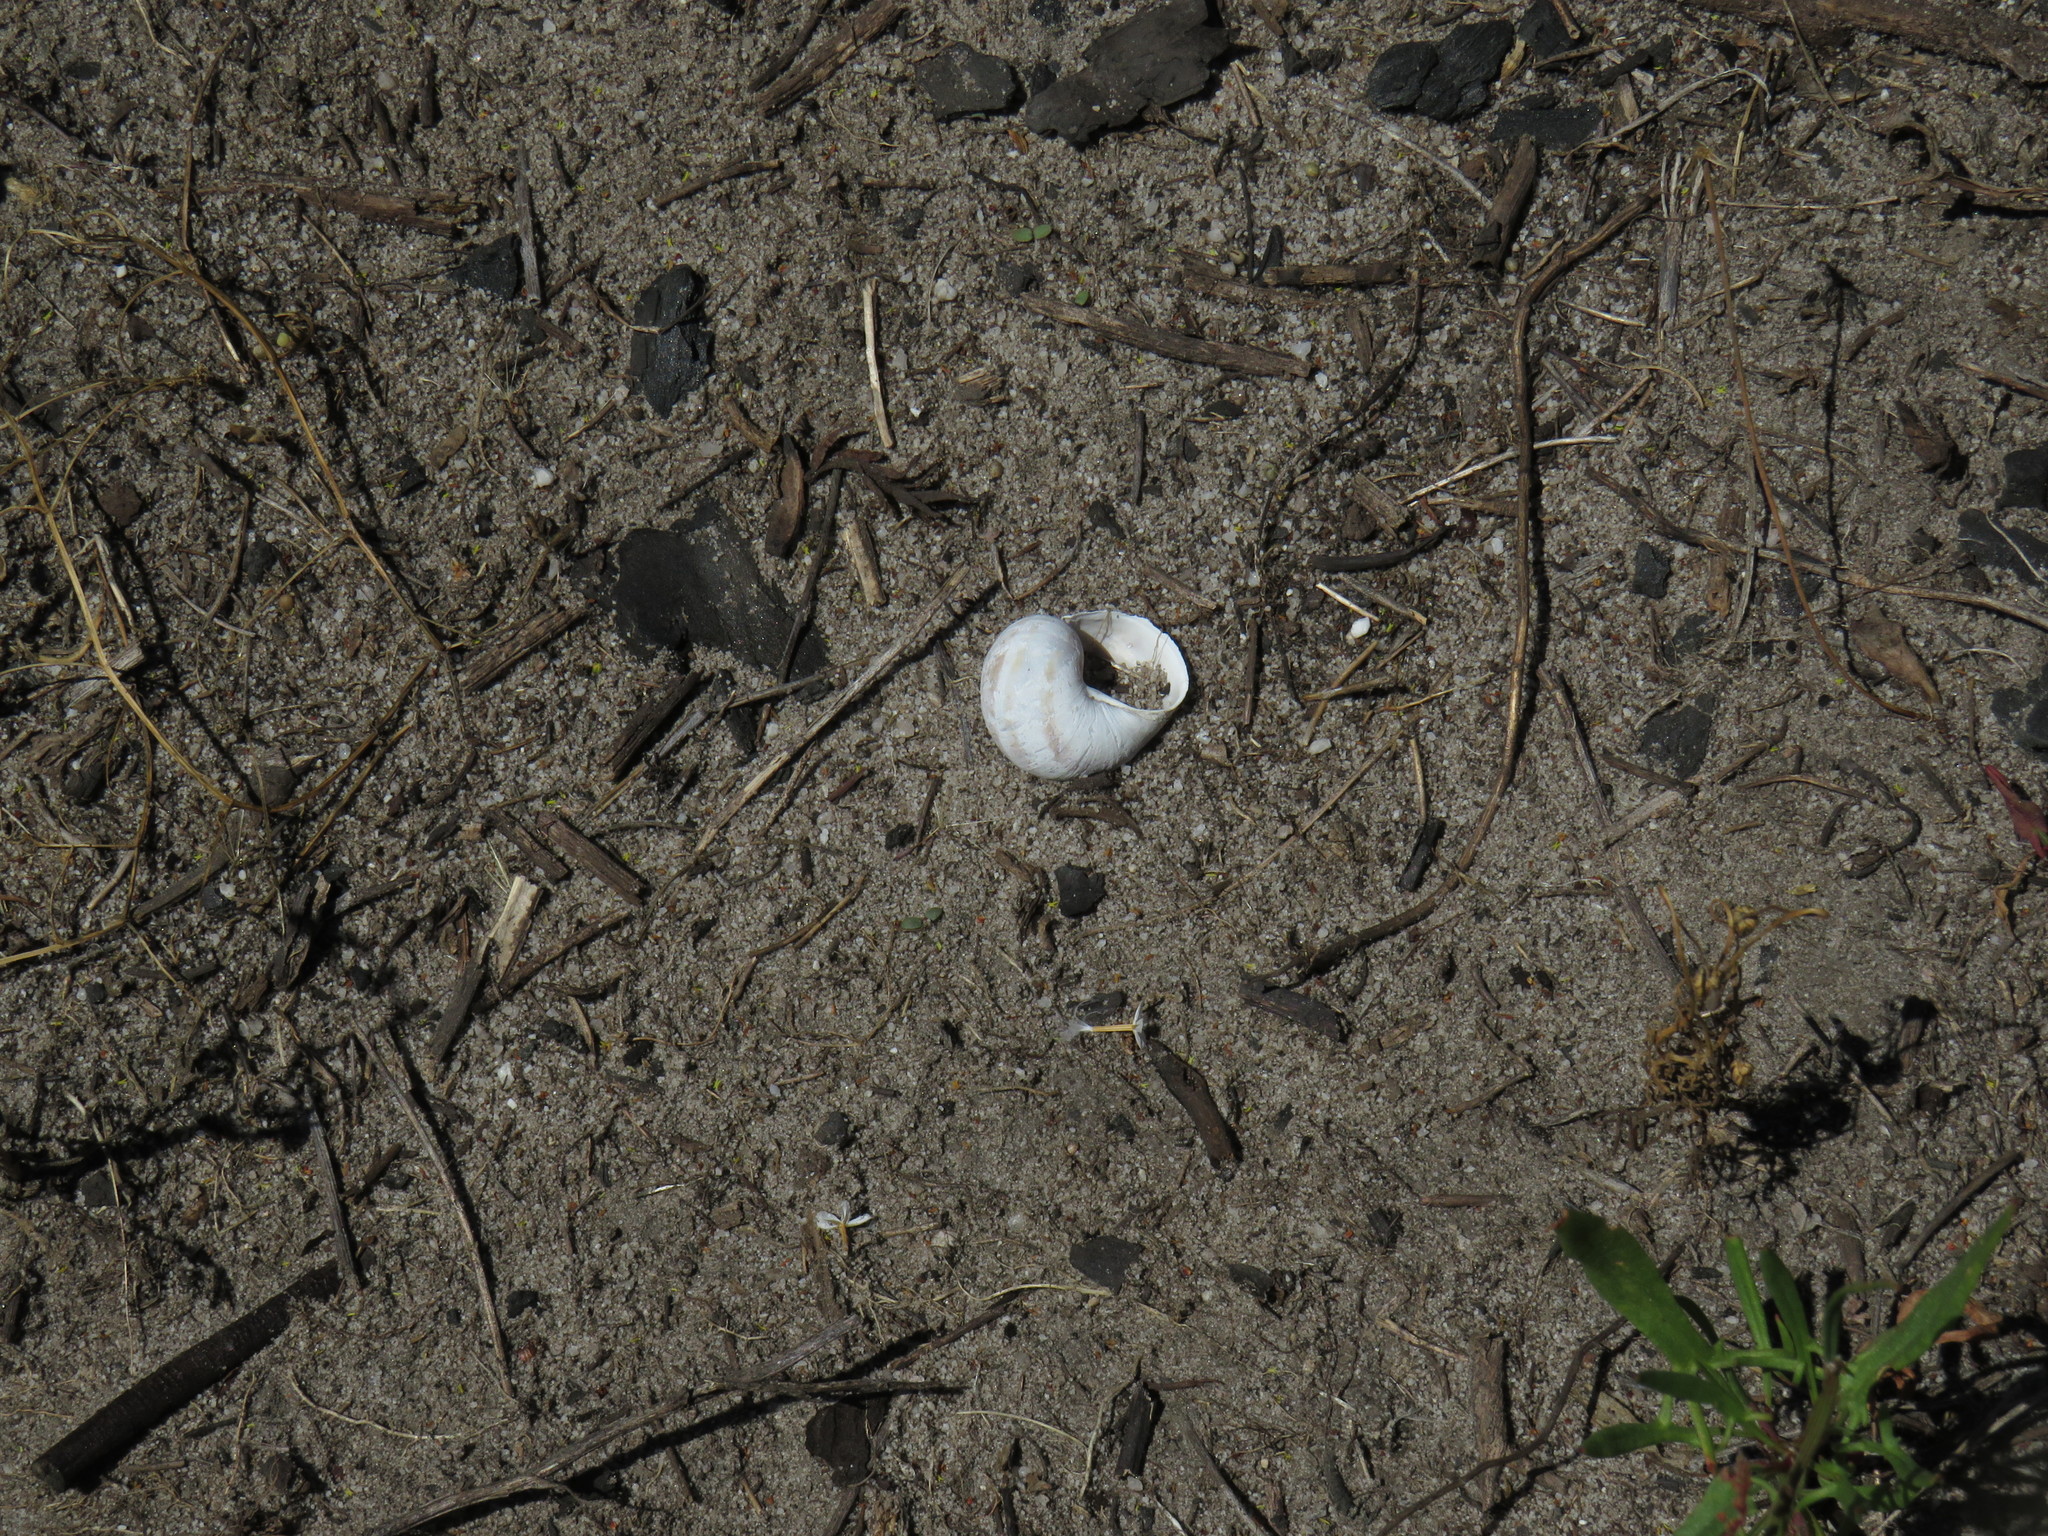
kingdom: Animalia
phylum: Mollusca
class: Gastropoda
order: Stylommatophora
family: Helicidae
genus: Cornu
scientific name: Cornu aspersum
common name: Brown garden snail
